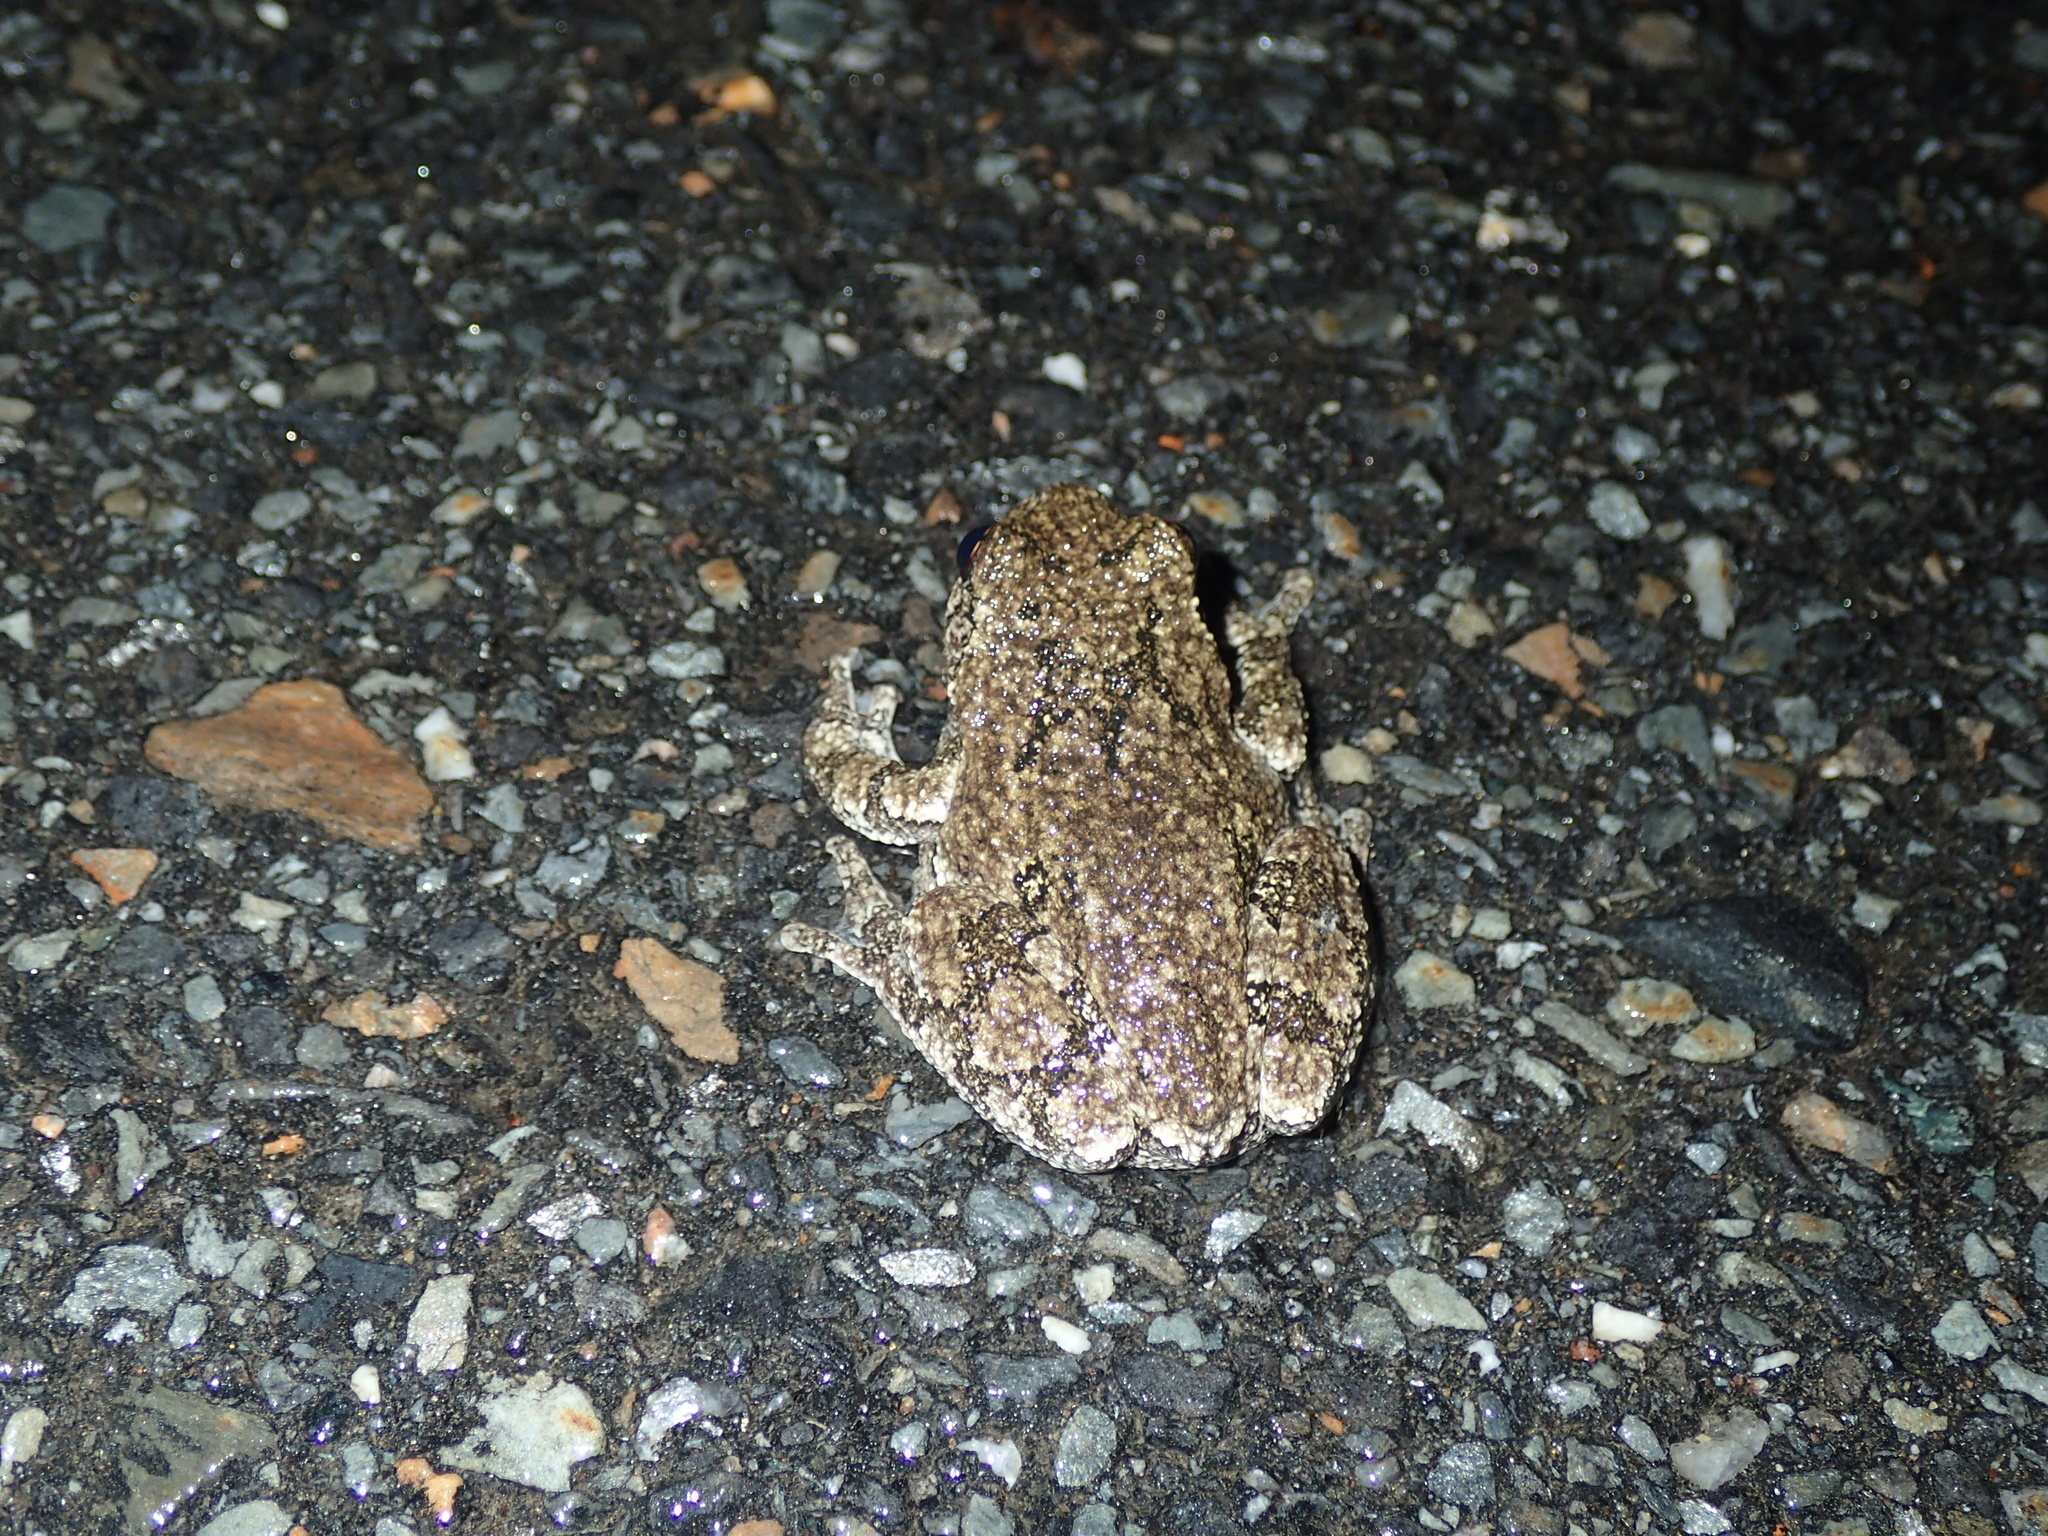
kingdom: Animalia
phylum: Chordata
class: Amphibia
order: Anura
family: Hylidae
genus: Dryophytes
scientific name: Dryophytes versicolor
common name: Gray treefrog
